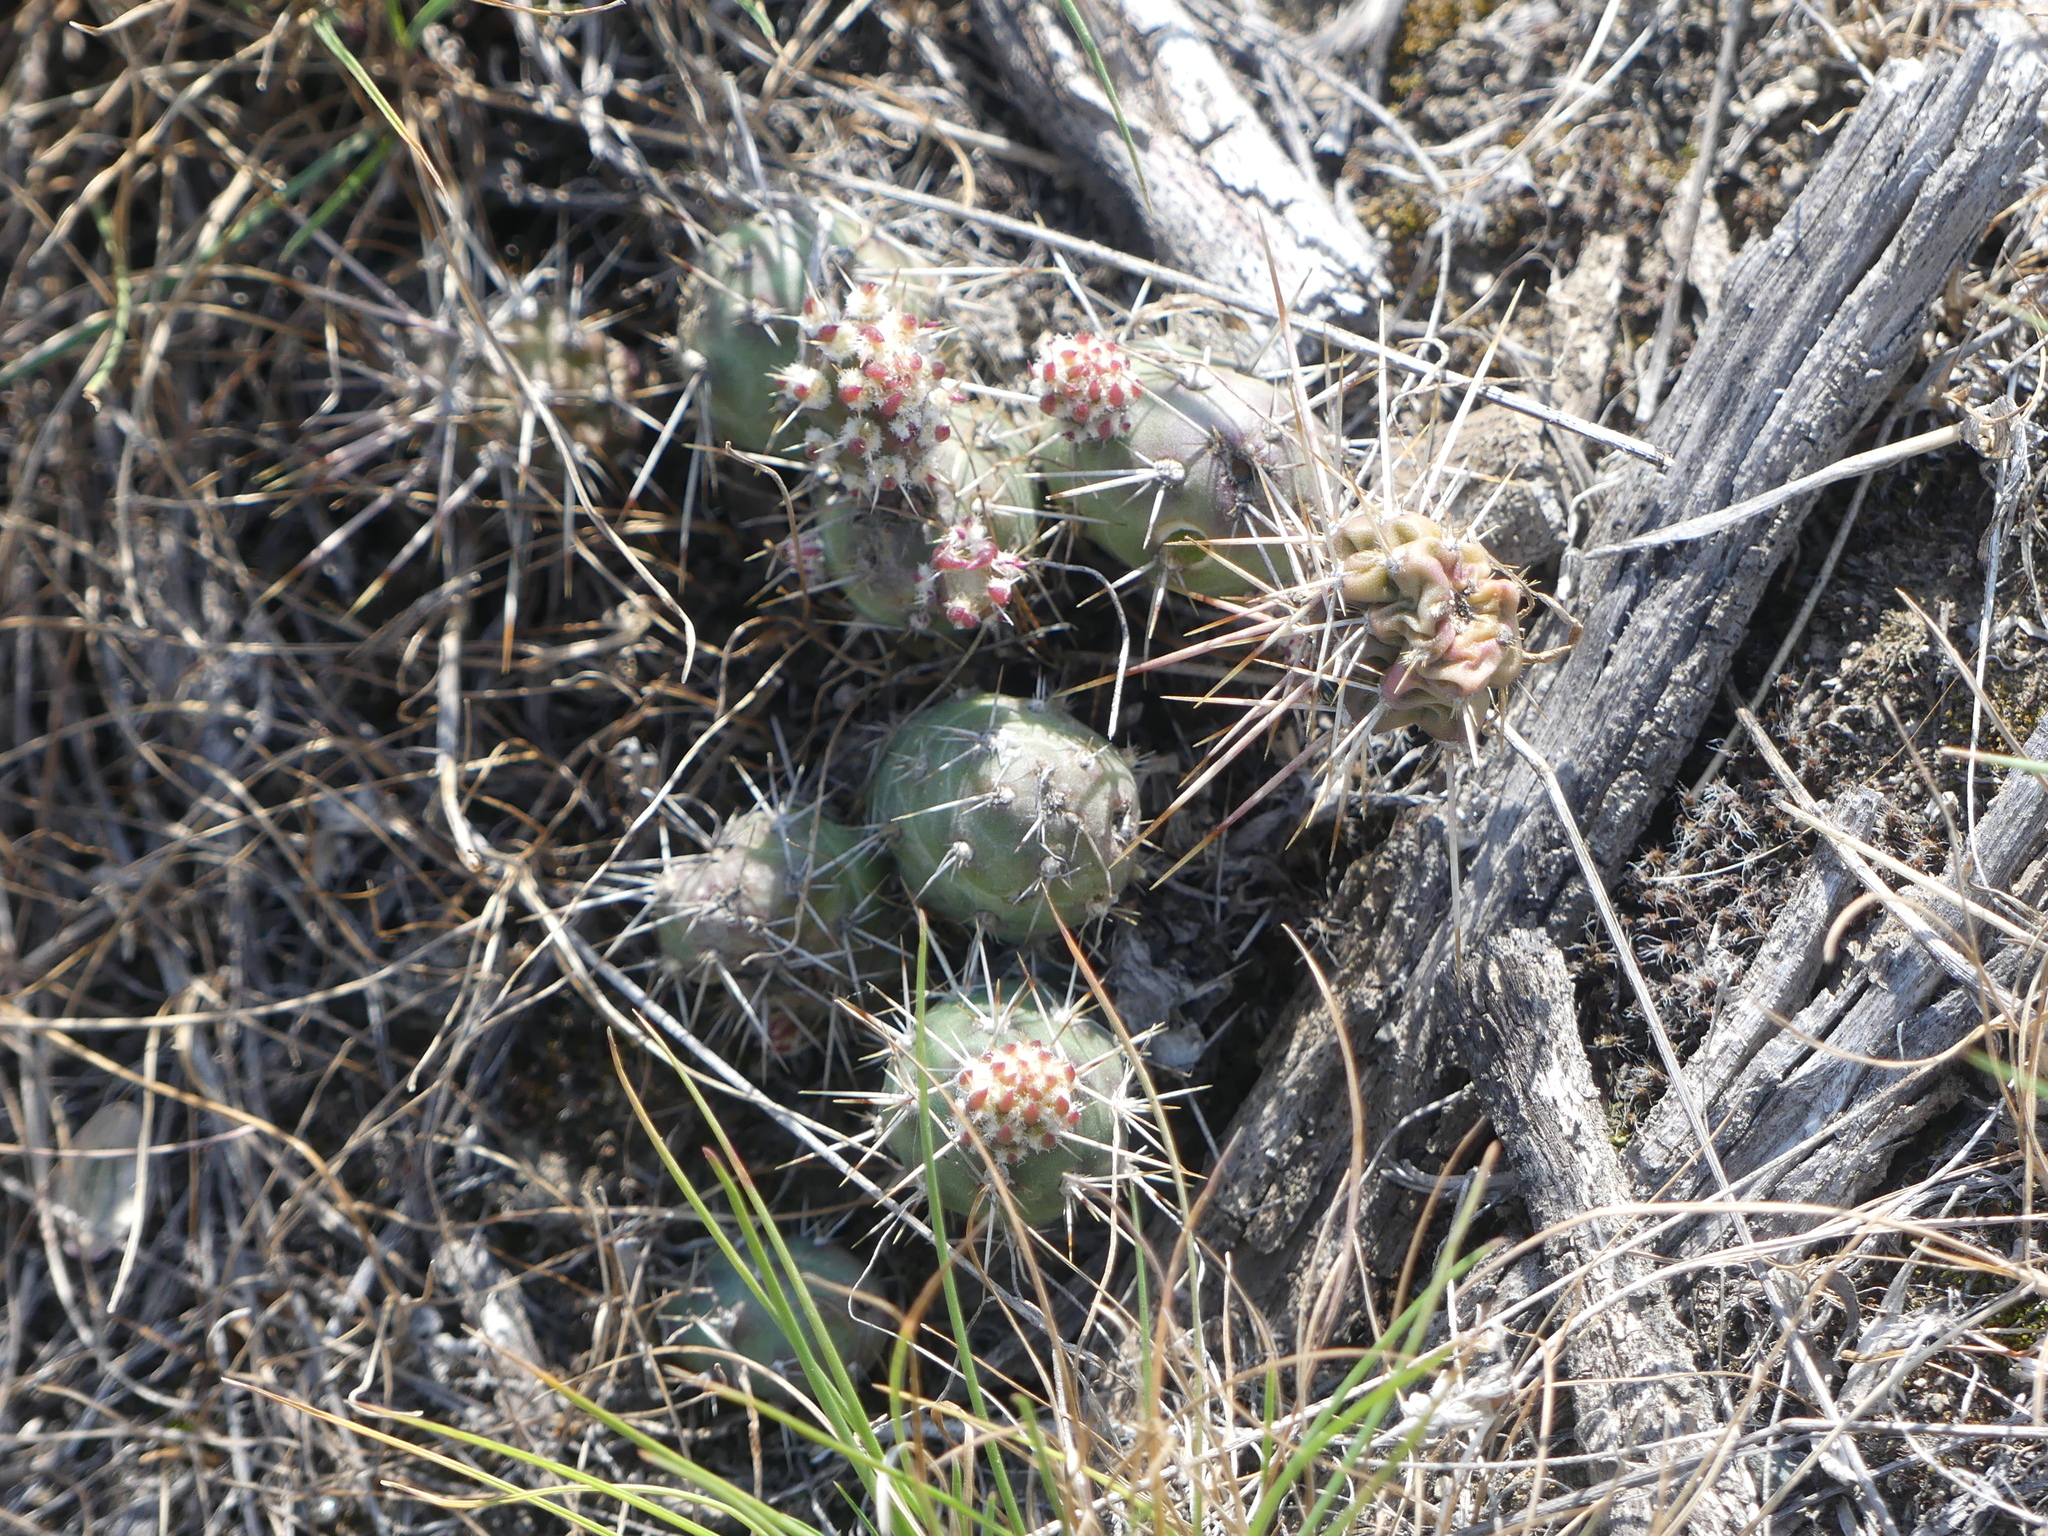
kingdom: Plantae
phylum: Tracheophyta
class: Magnoliopsida
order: Caryophyllales
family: Cactaceae
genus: Opuntia
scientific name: Opuntia fragilis
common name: Brittle cactus
